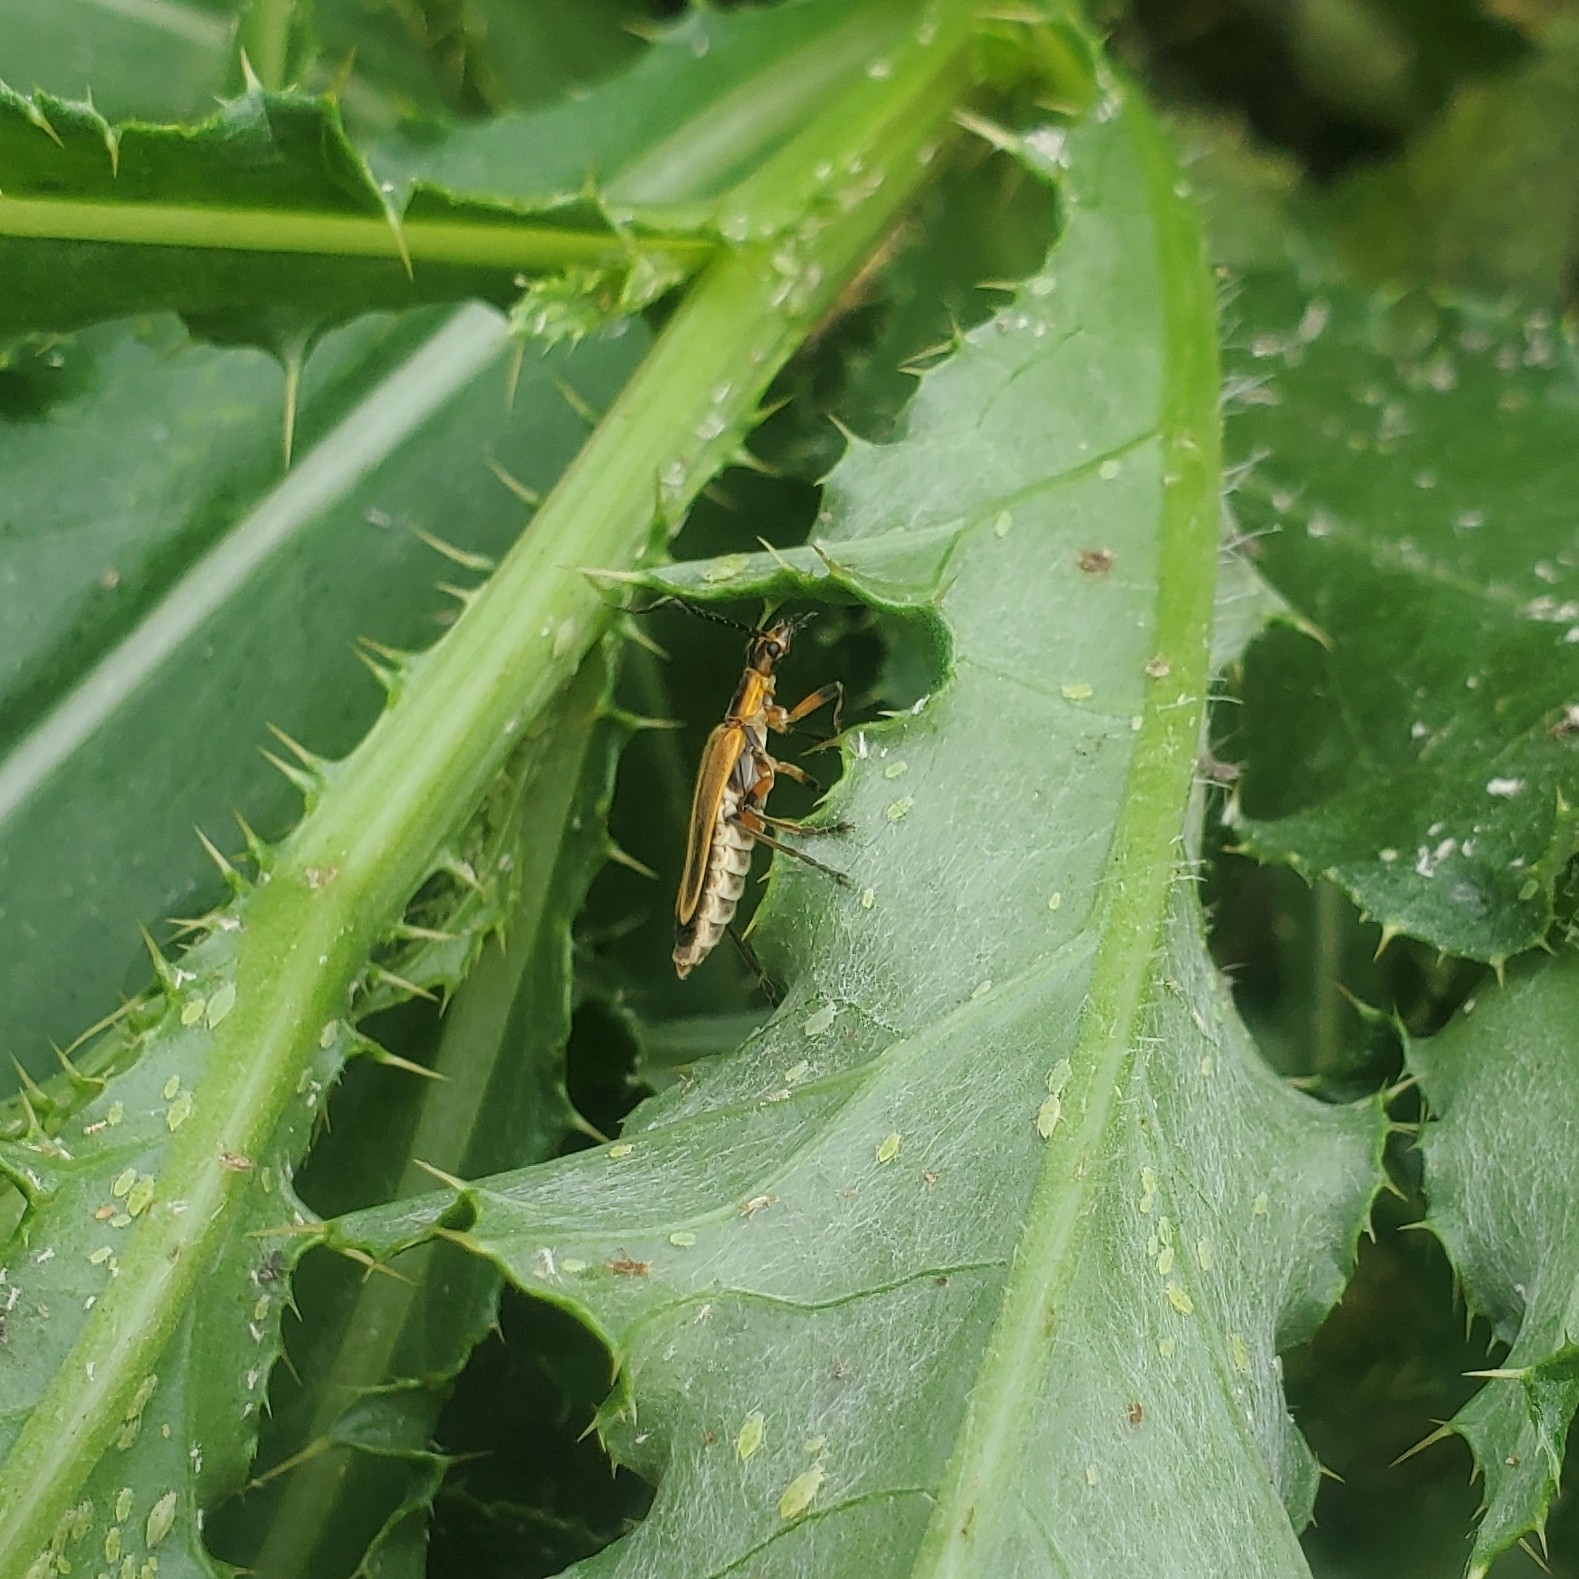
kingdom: Animalia
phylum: Arthropoda
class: Insecta
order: Coleoptera
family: Cantharidae
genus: Chauliognathus
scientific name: Chauliognathus marginatus
